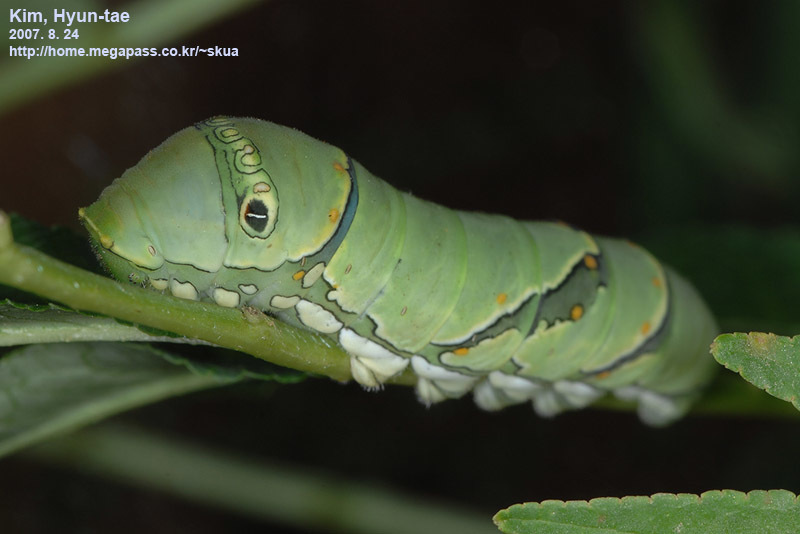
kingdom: Animalia
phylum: Arthropoda
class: Insecta
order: Lepidoptera
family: Papilionidae
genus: Papilio
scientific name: Papilio xuthus
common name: Asian swallowtail
